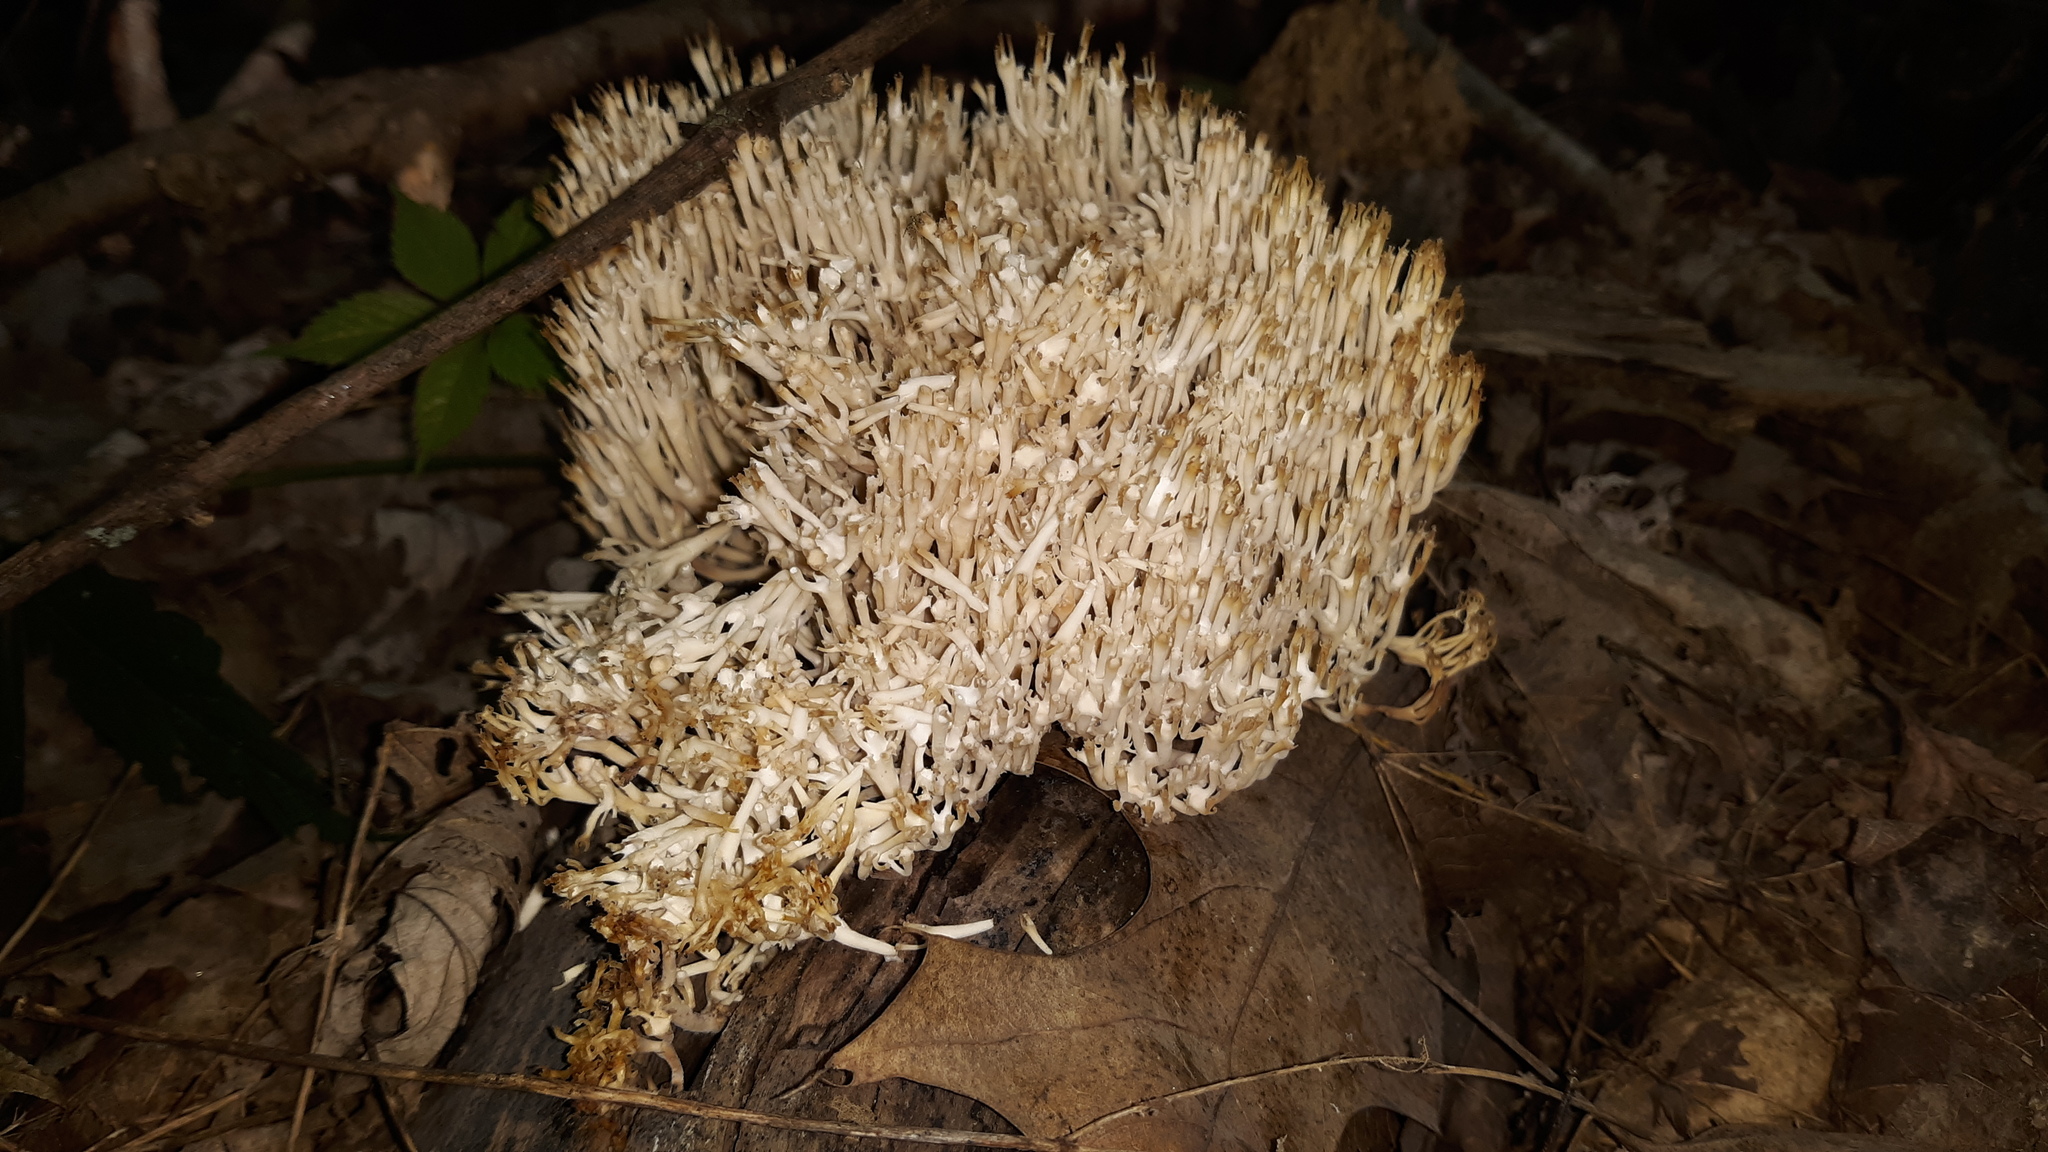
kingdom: Fungi
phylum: Basidiomycota
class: Agaricomycetes
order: Russulales
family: Auriscalpiaceae
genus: Artomyces
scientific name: Artomyces pyxidatus
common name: Crown-tipped coral fungus
